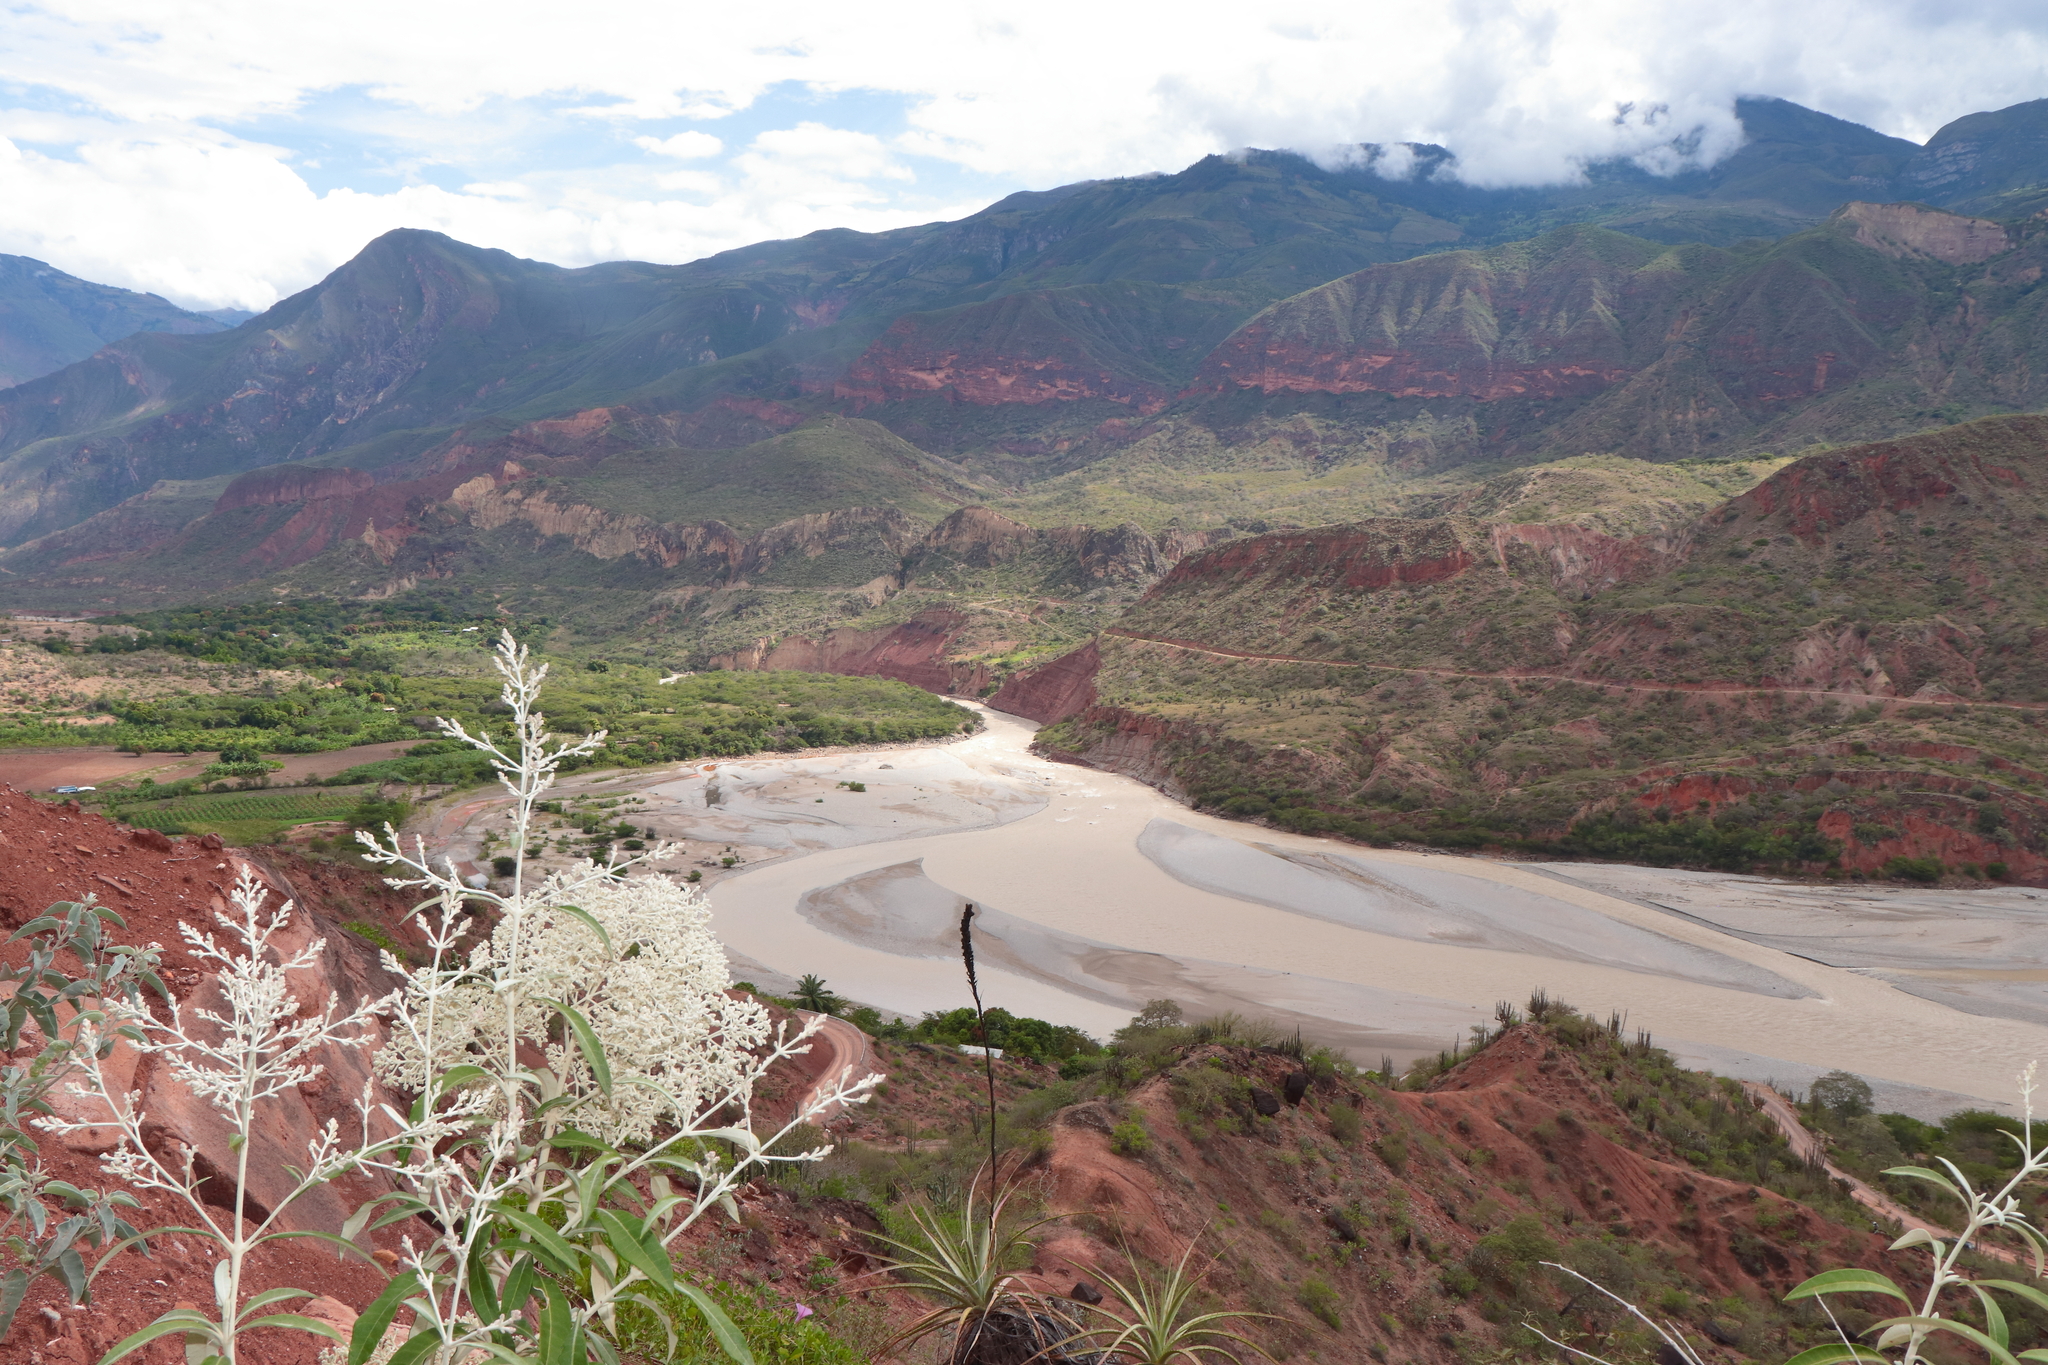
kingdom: Plantae
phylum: Tracheophyta
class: Magnoliopsida
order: Caryophyllales
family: Amaranthaceae
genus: Pedersenia
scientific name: Pedersenia weberbaueri
